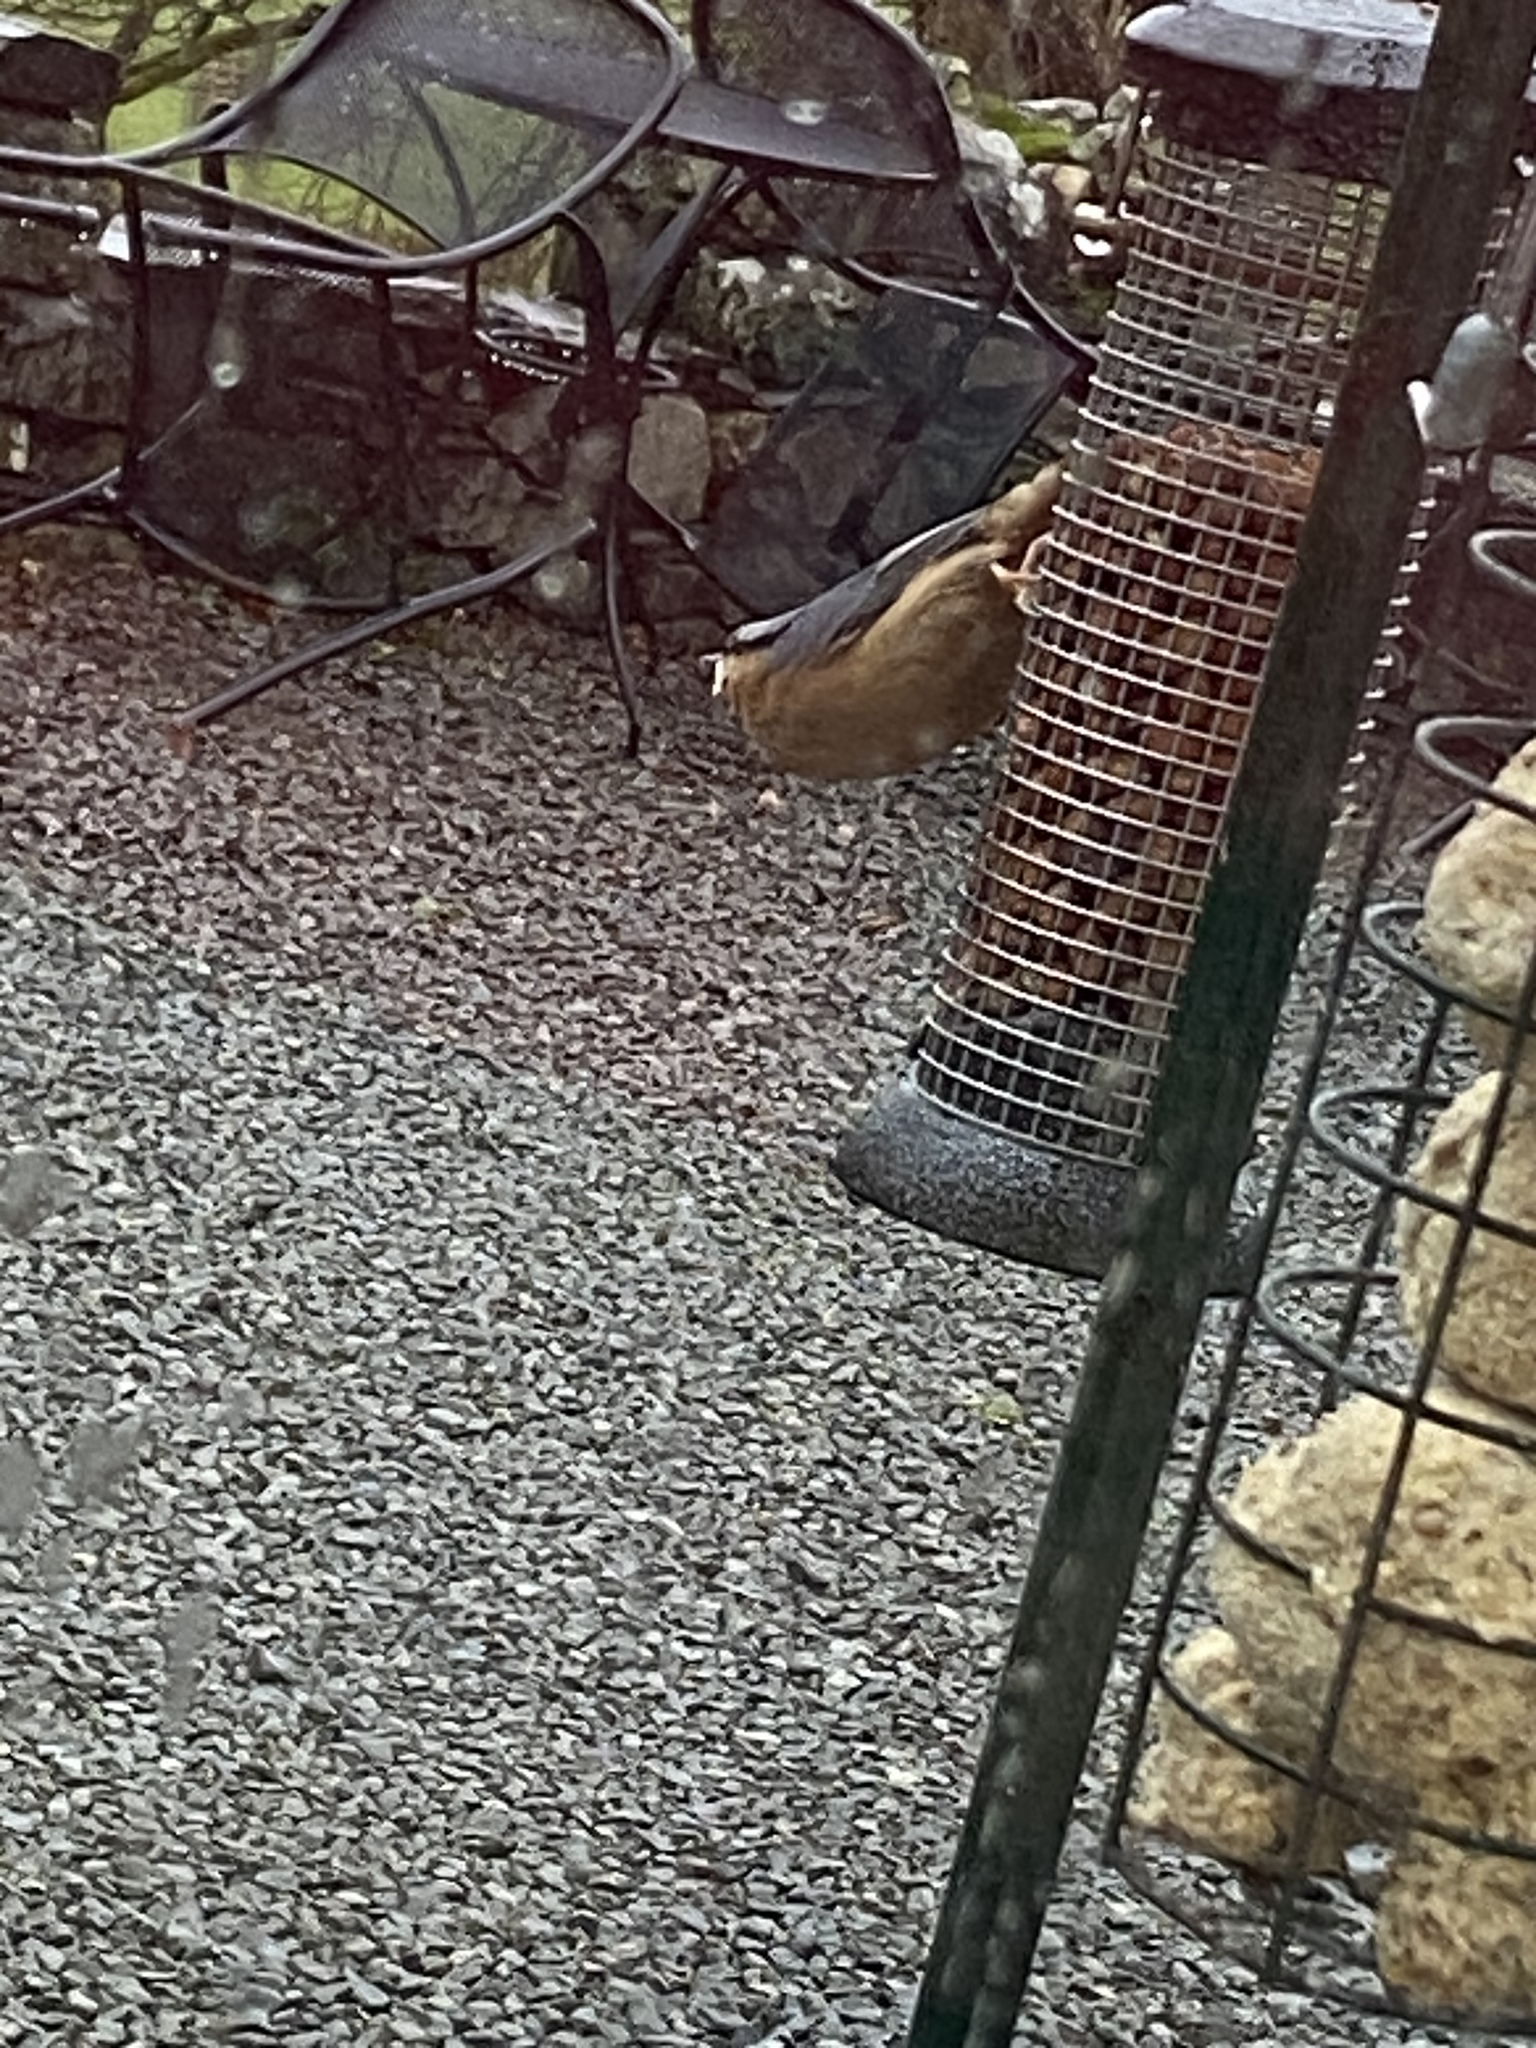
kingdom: Animalia
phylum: Chordata
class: Aves
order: Passeriformes
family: Sittidae
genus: Sitta
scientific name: Sitta europaea
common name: Eurasian nuthatch
